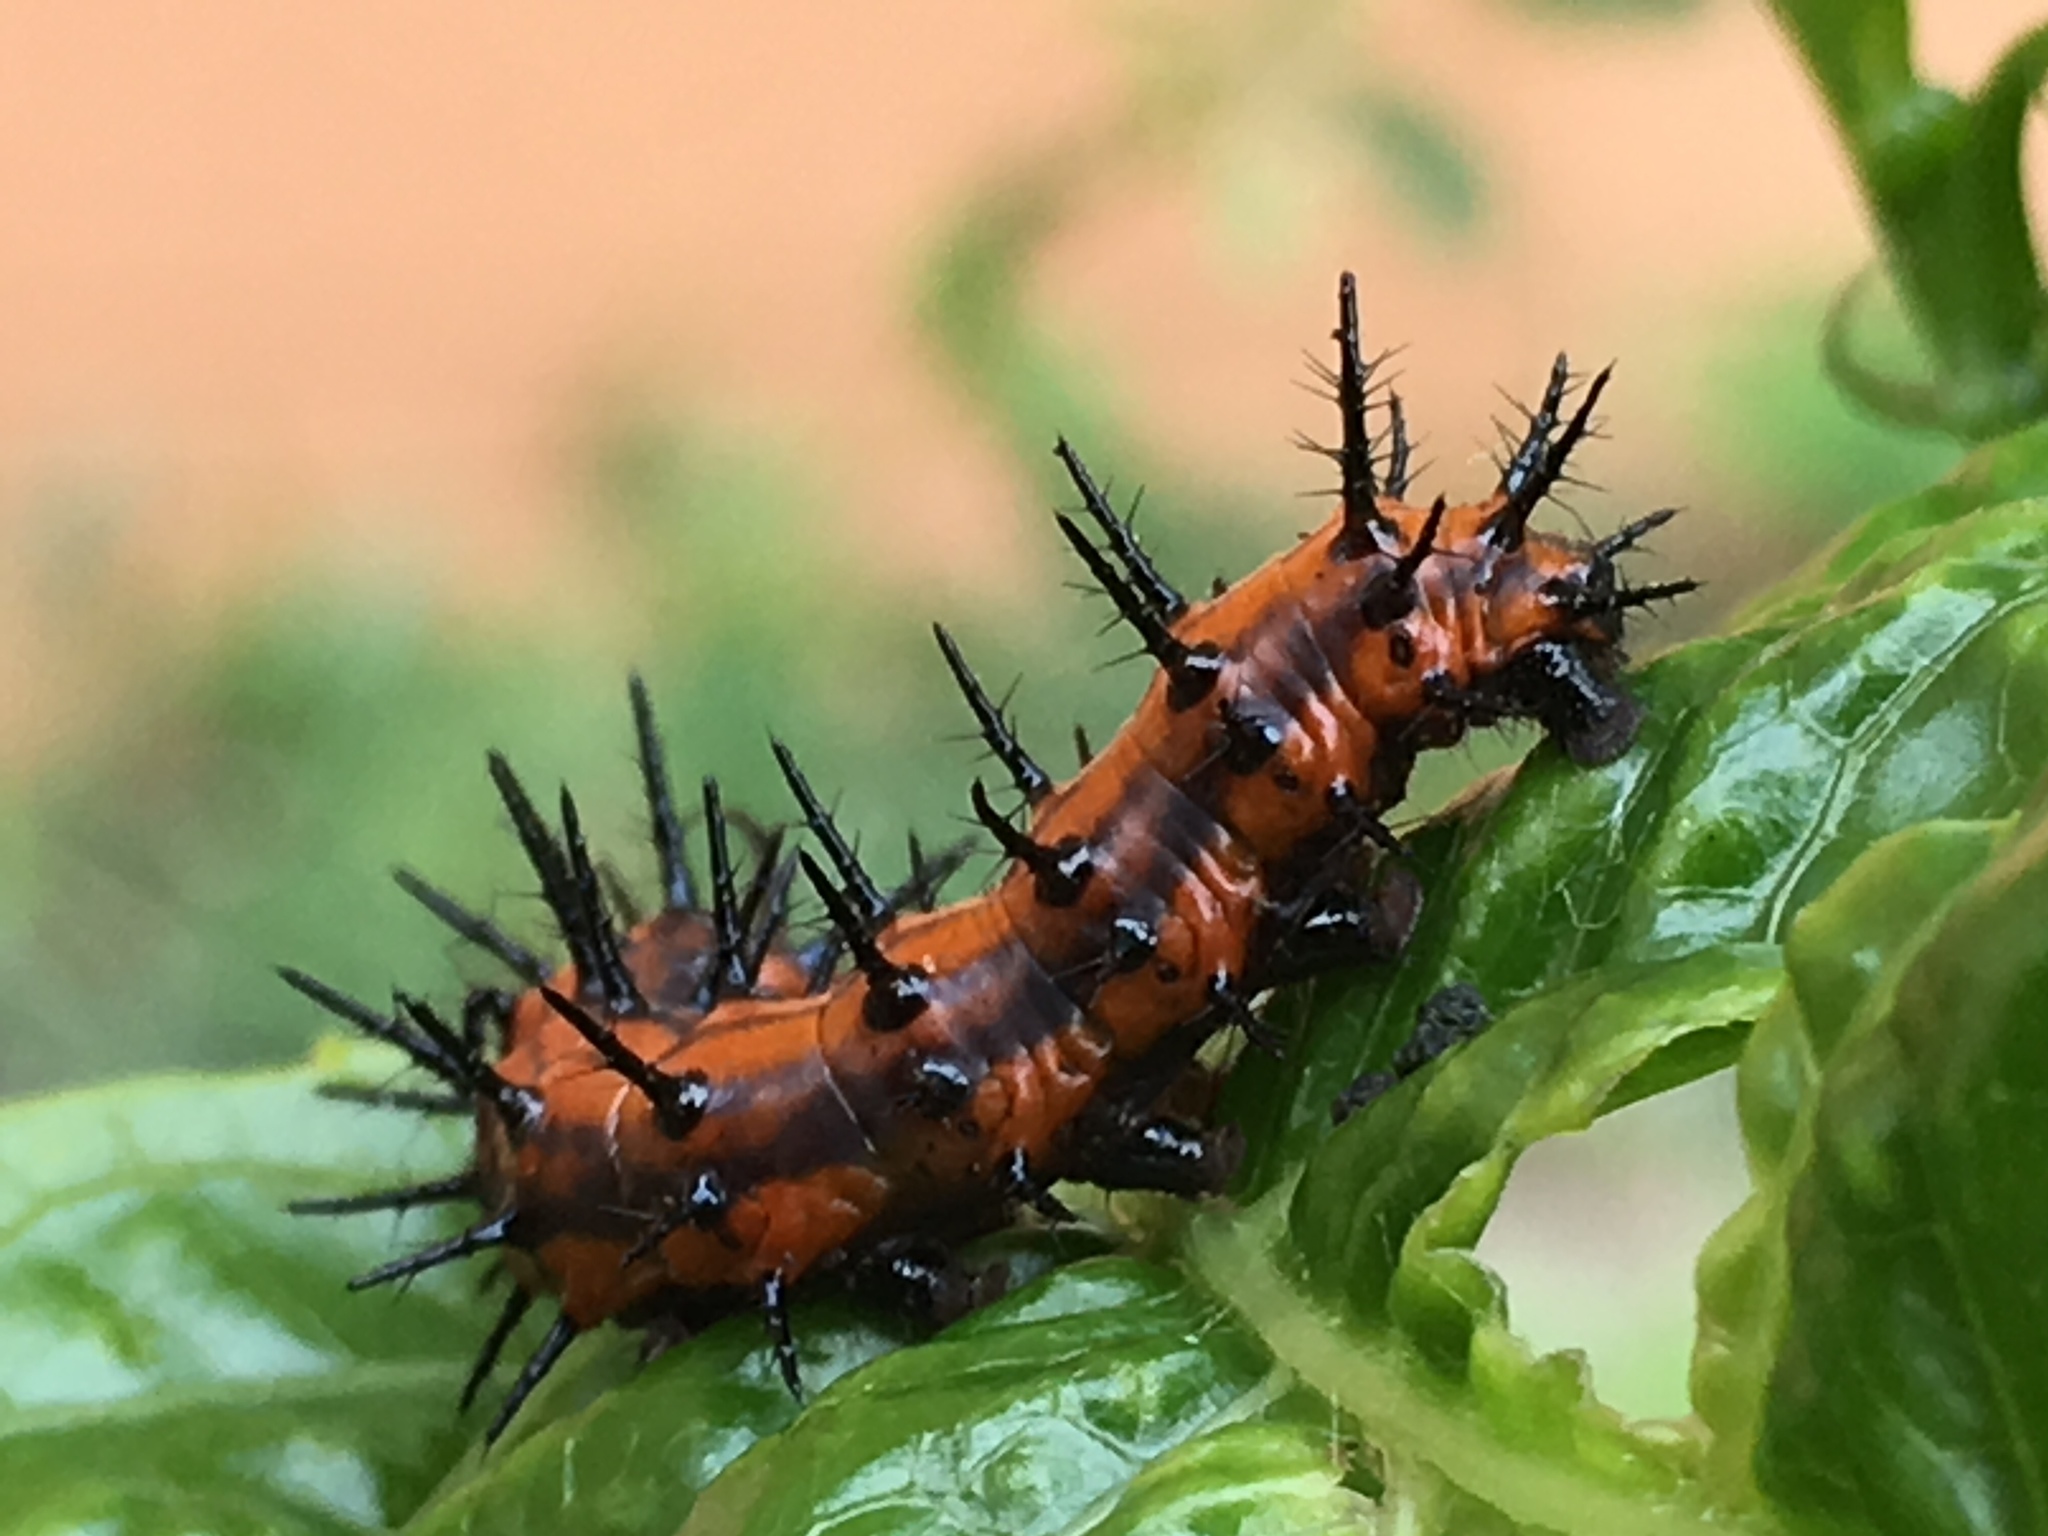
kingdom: Animalia
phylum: Arthropoda
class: Insecta
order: Lepidoptera
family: Nymphalidae
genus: Dione
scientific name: Dione vanillae
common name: Gulf fritillary
